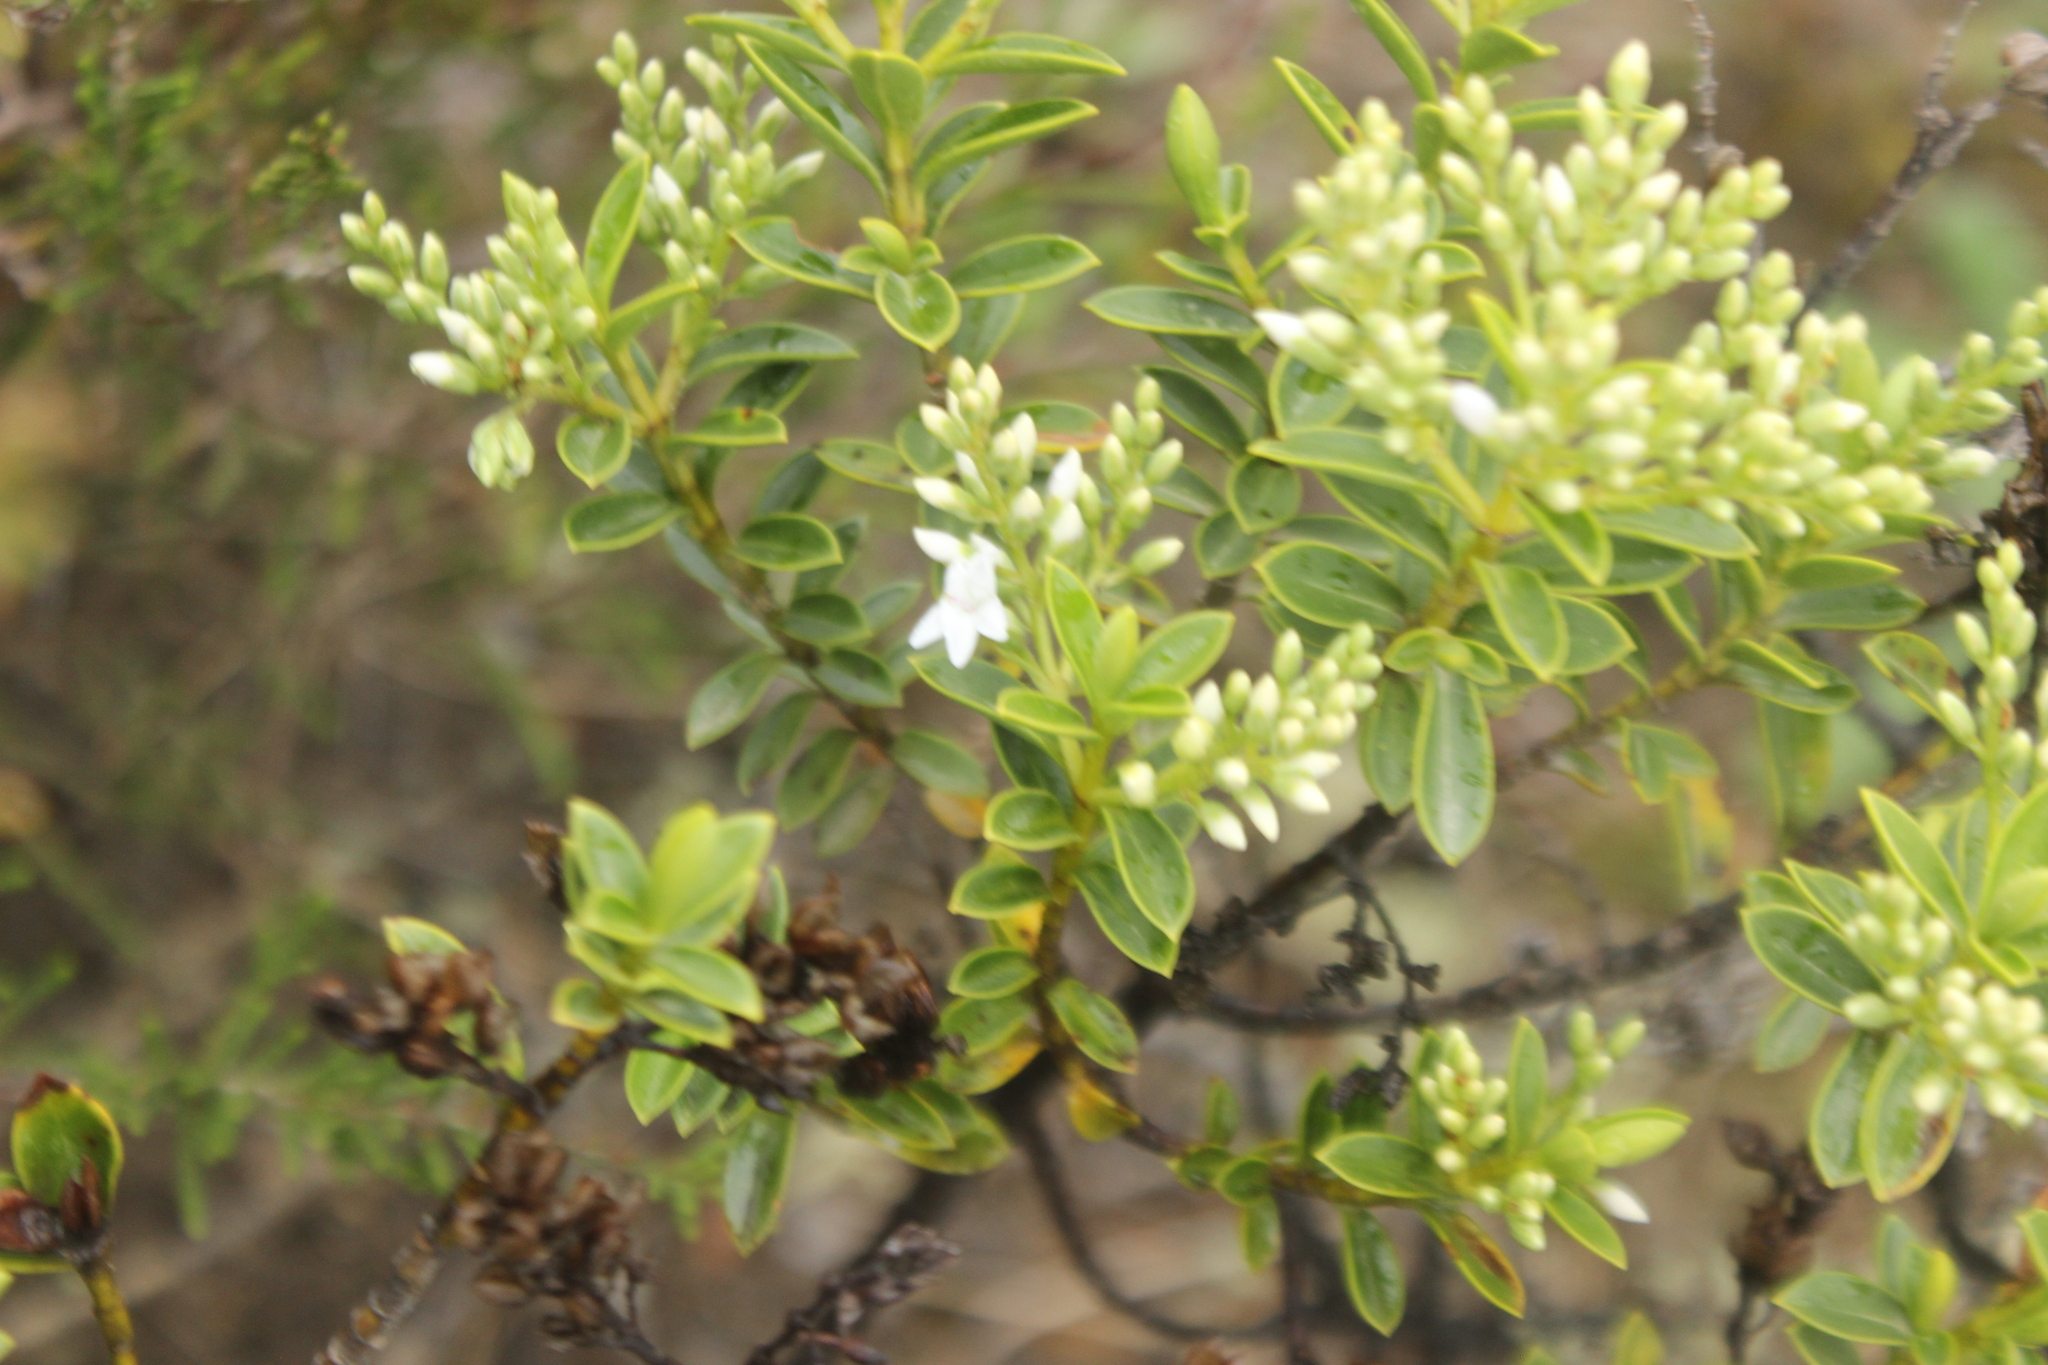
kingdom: Plantae
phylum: Tracheophyta
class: Magnoliopsida
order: Lamiales
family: Plantaginaceae
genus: Veronica
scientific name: Veronica venustula
